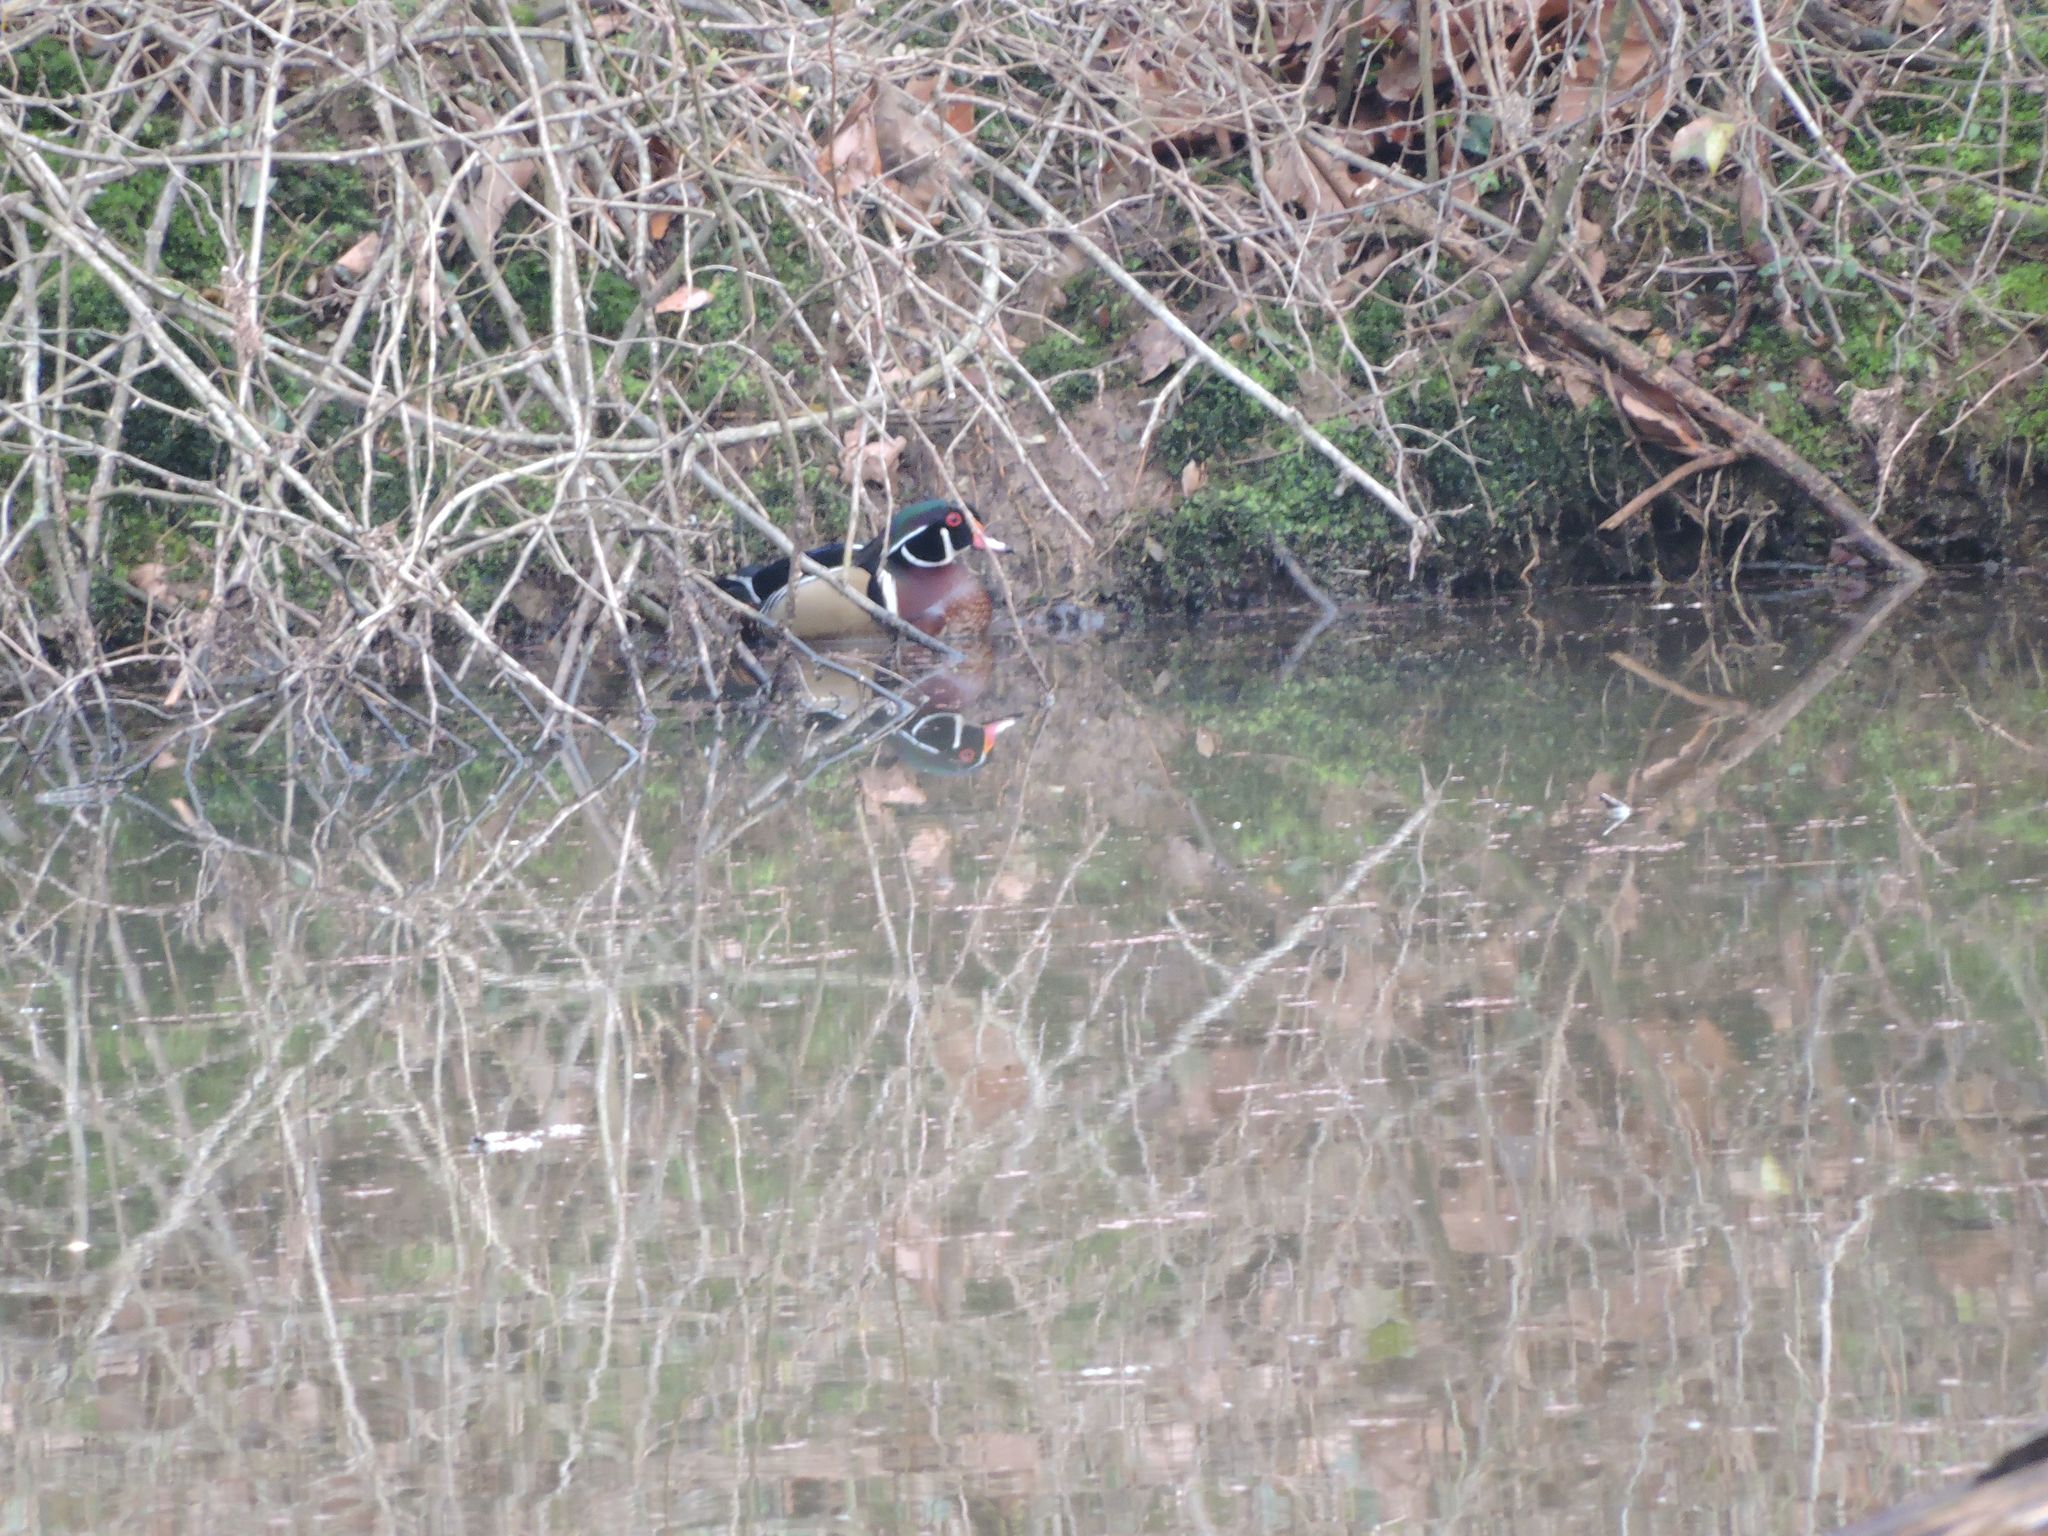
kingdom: Animalia
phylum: Chordata
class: Aves
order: Anseriformes
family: Anatidae
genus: Aix
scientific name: Aix sponsa
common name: Wood duck
